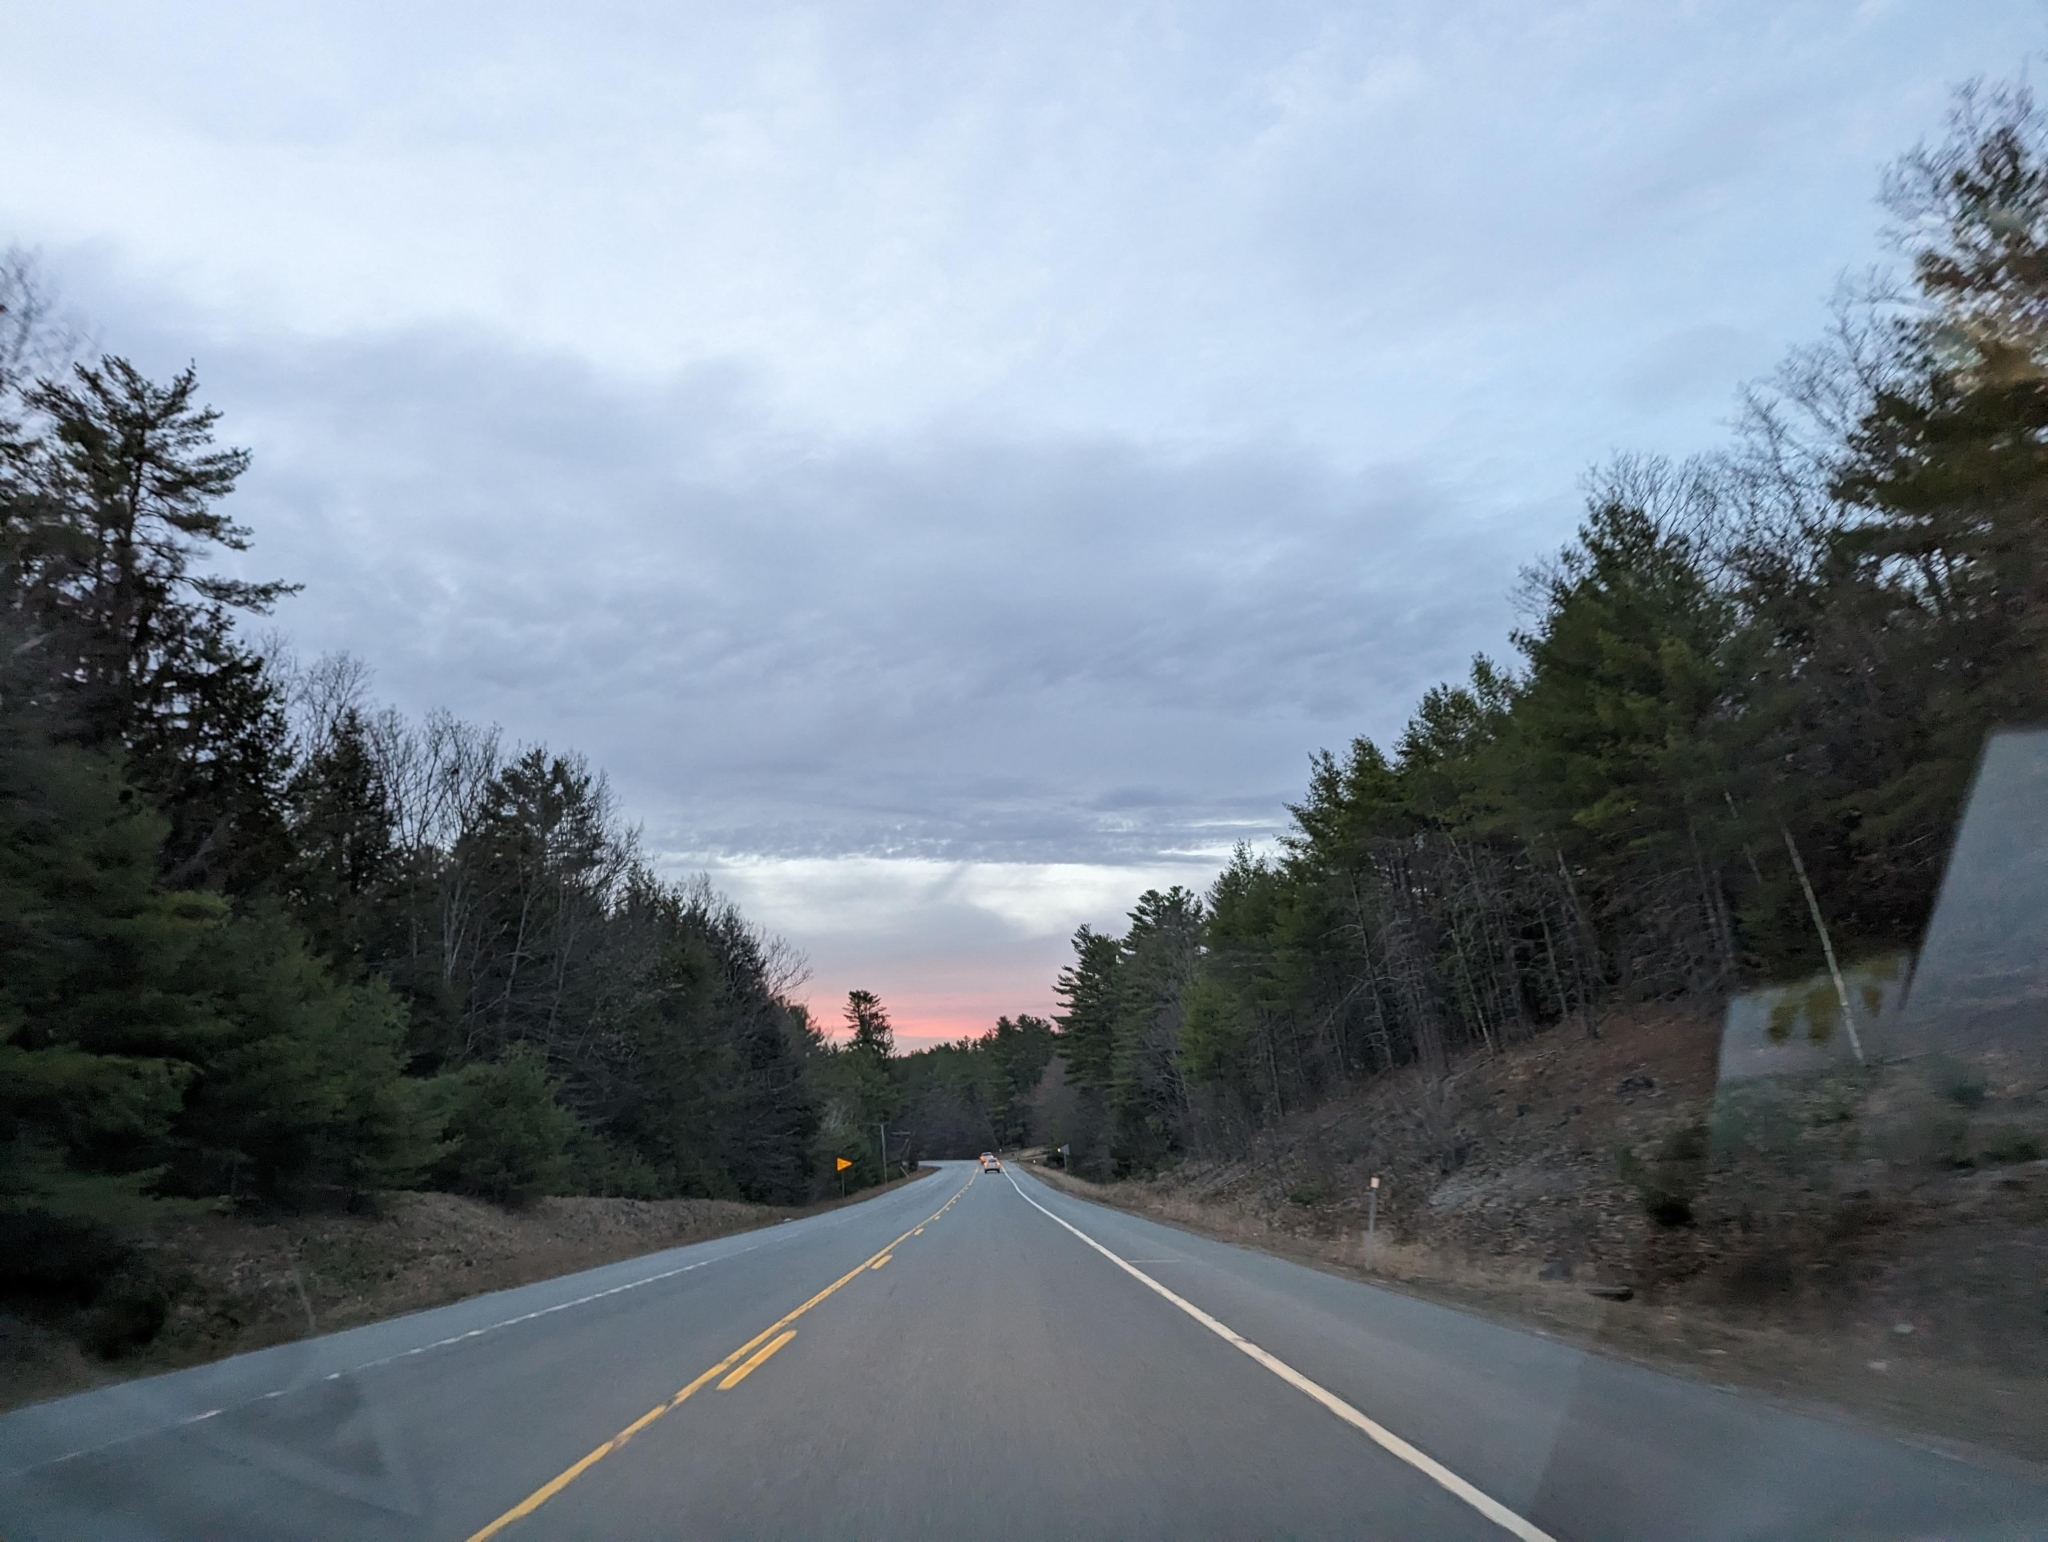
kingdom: Plantae
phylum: Tracheophyta
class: Pinopsida
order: Pinales
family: Pinaceae
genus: Pinus
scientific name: Pinus strobus
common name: Weymouth pine
